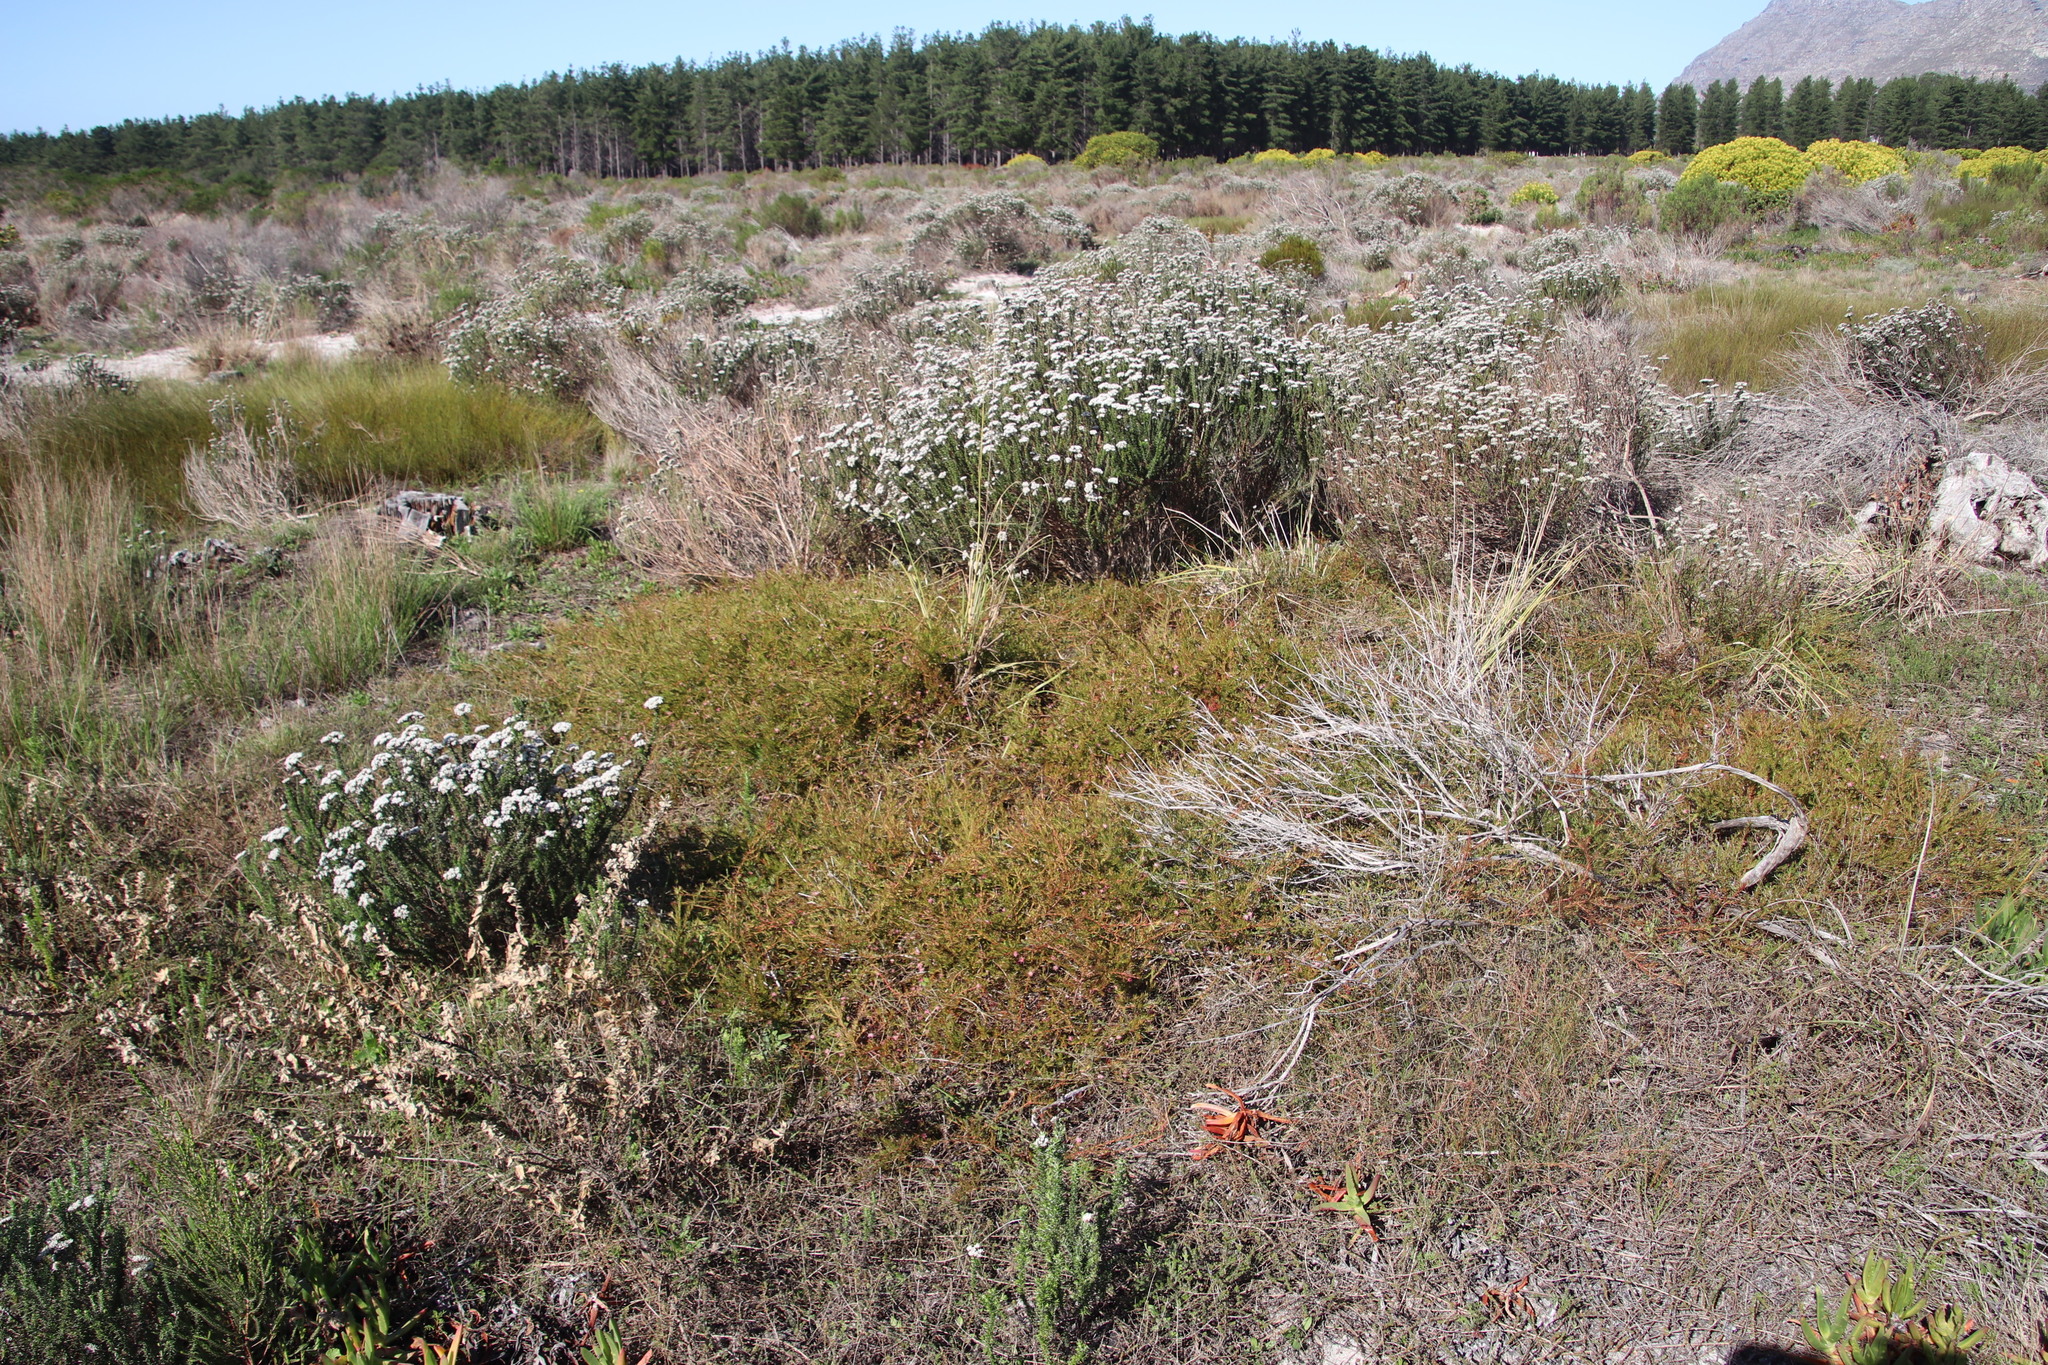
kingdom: Plantae
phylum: Tracheophyta
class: Magnoliopsida
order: Proteales
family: Proteaceae
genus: Diastella
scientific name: Diastella proteoides
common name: Flats silkypuff
